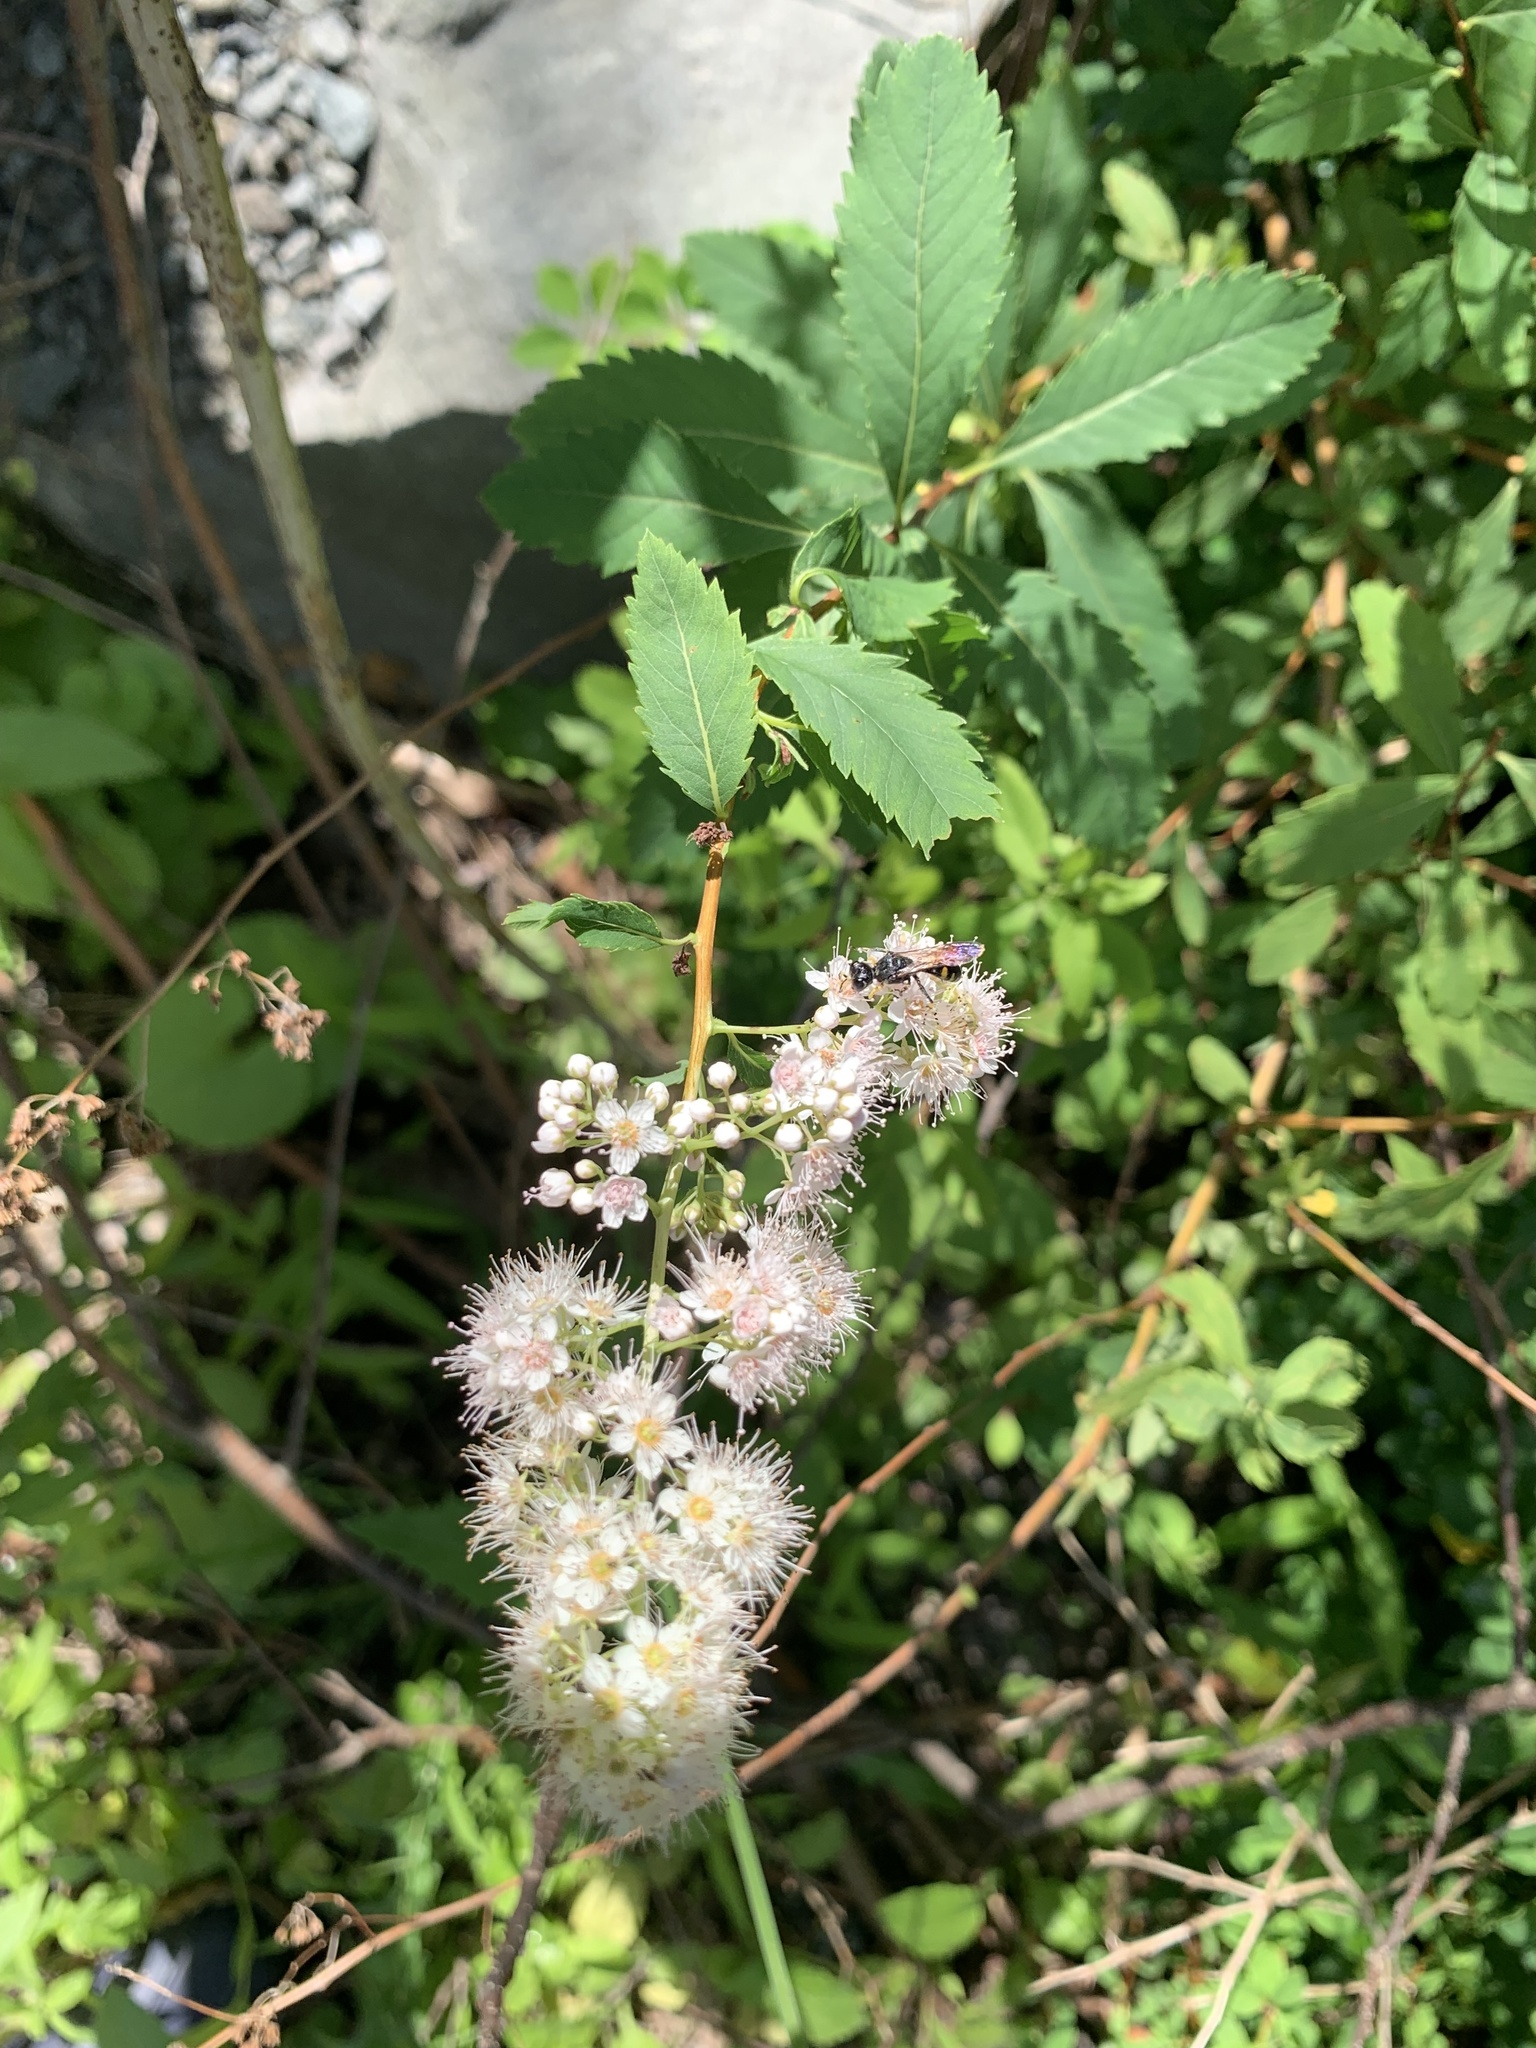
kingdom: Plantae
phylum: Tracheophyta
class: Magnoliopsida
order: Rosales
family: Rosaceae
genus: Spiraea
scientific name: Spiraea alba
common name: Pale bridewort
